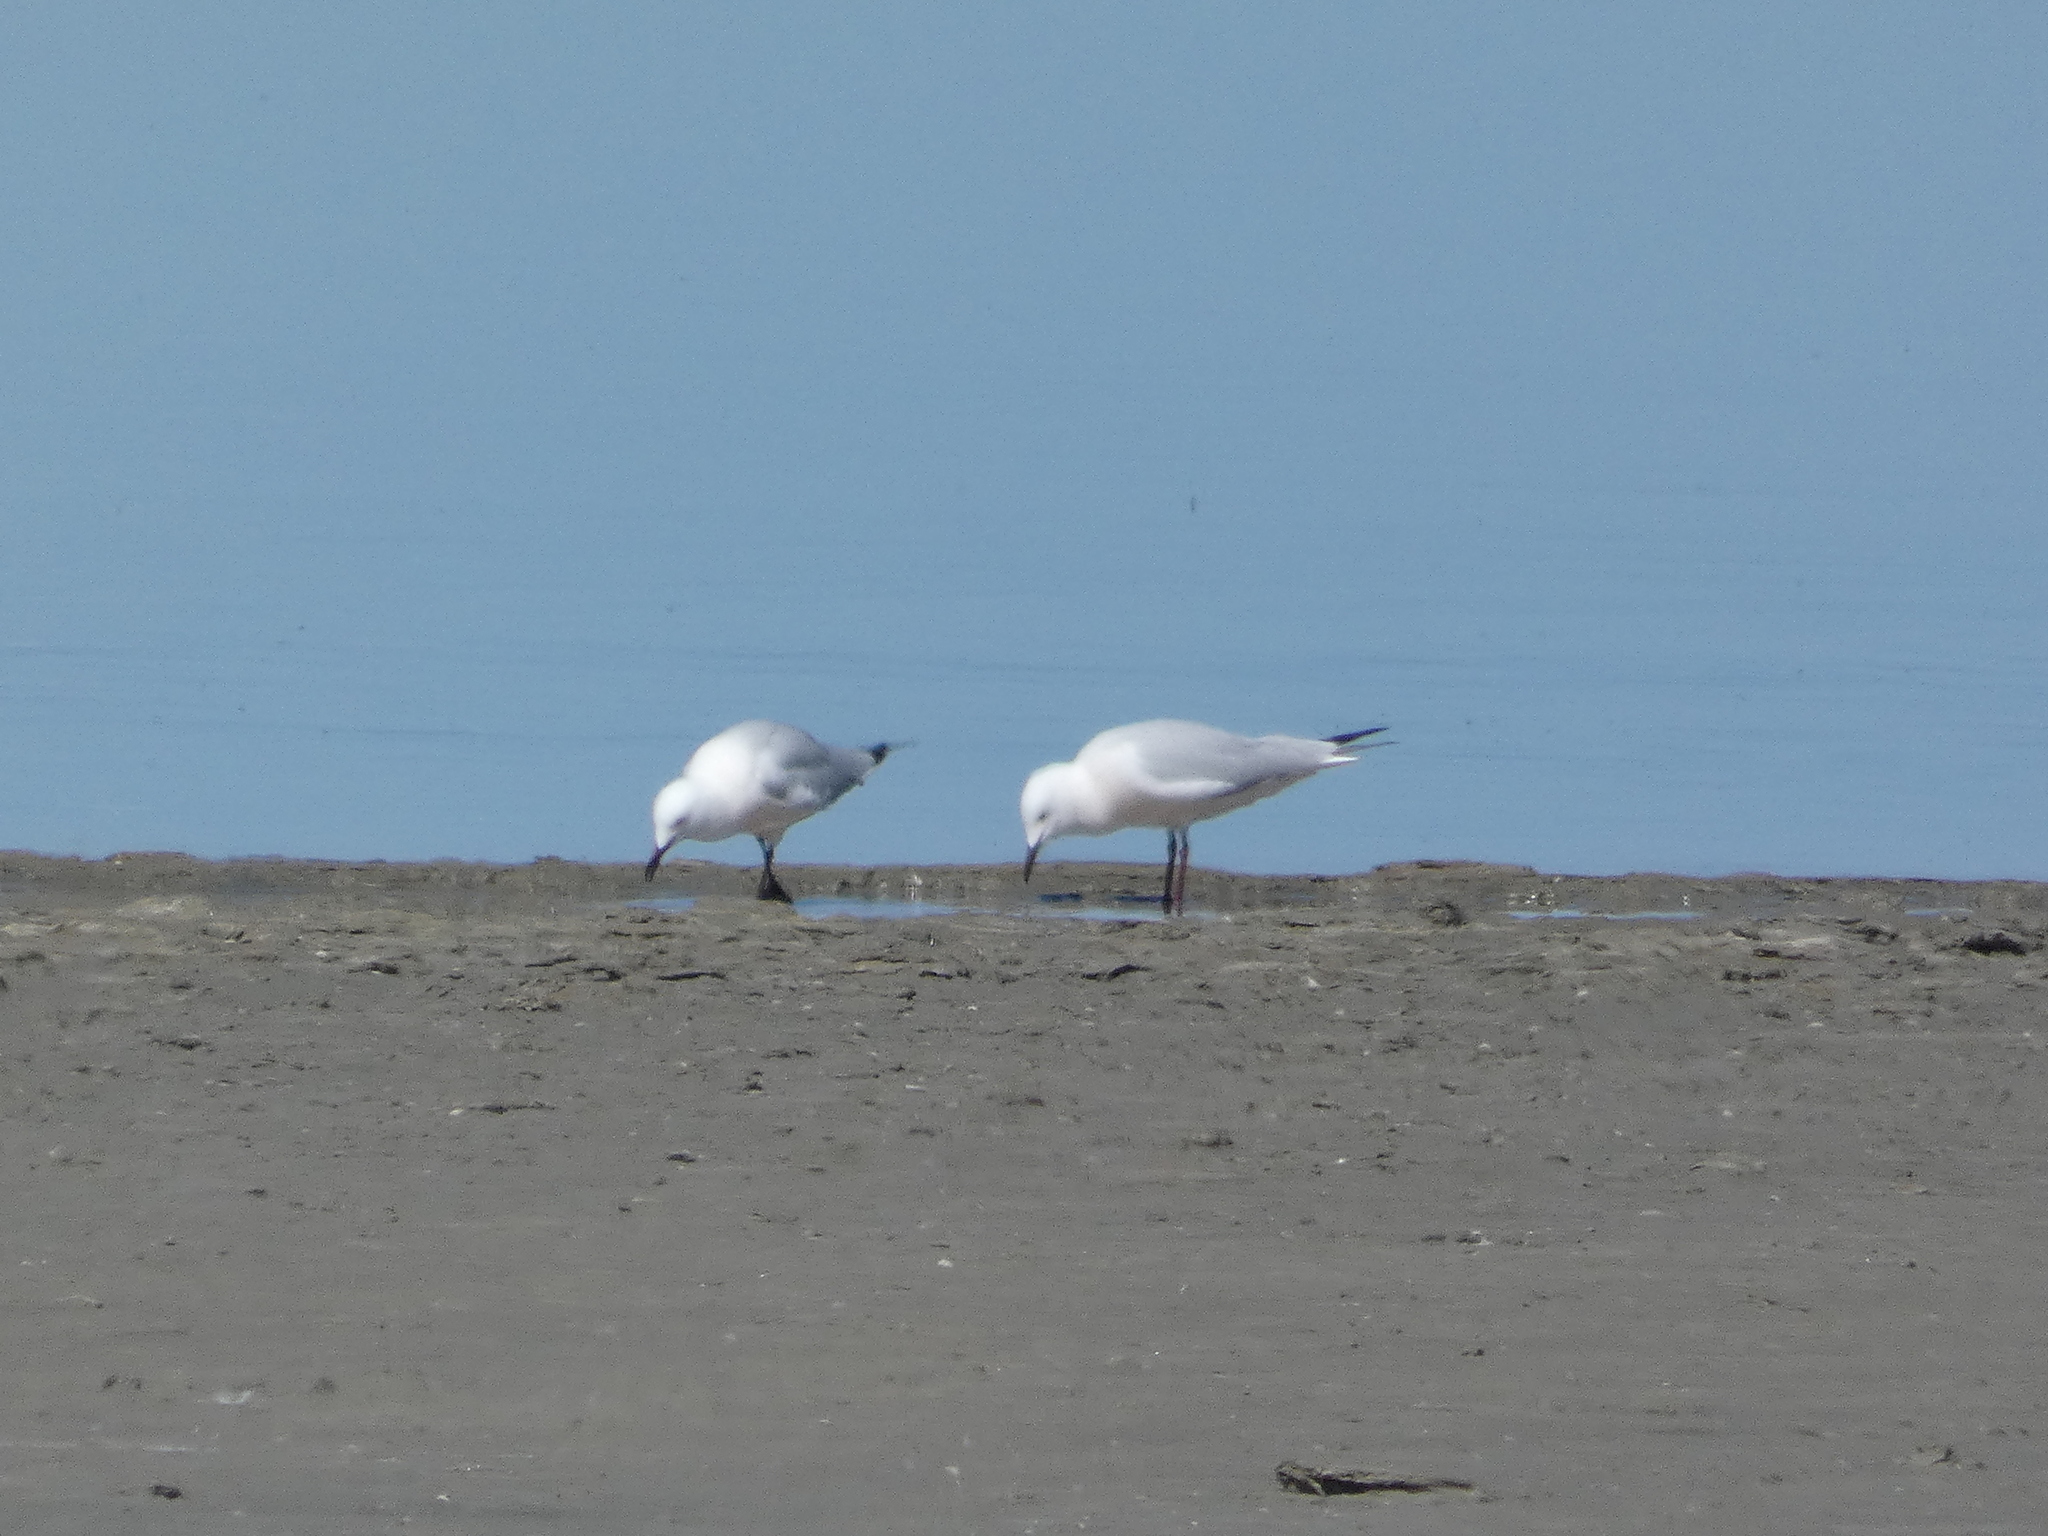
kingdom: Animalia
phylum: Chordata
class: Aves
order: Charadriiformes
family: Laridae
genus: Chroicocephalus
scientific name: Chroicocephalus genei
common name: Slender-billed gull
